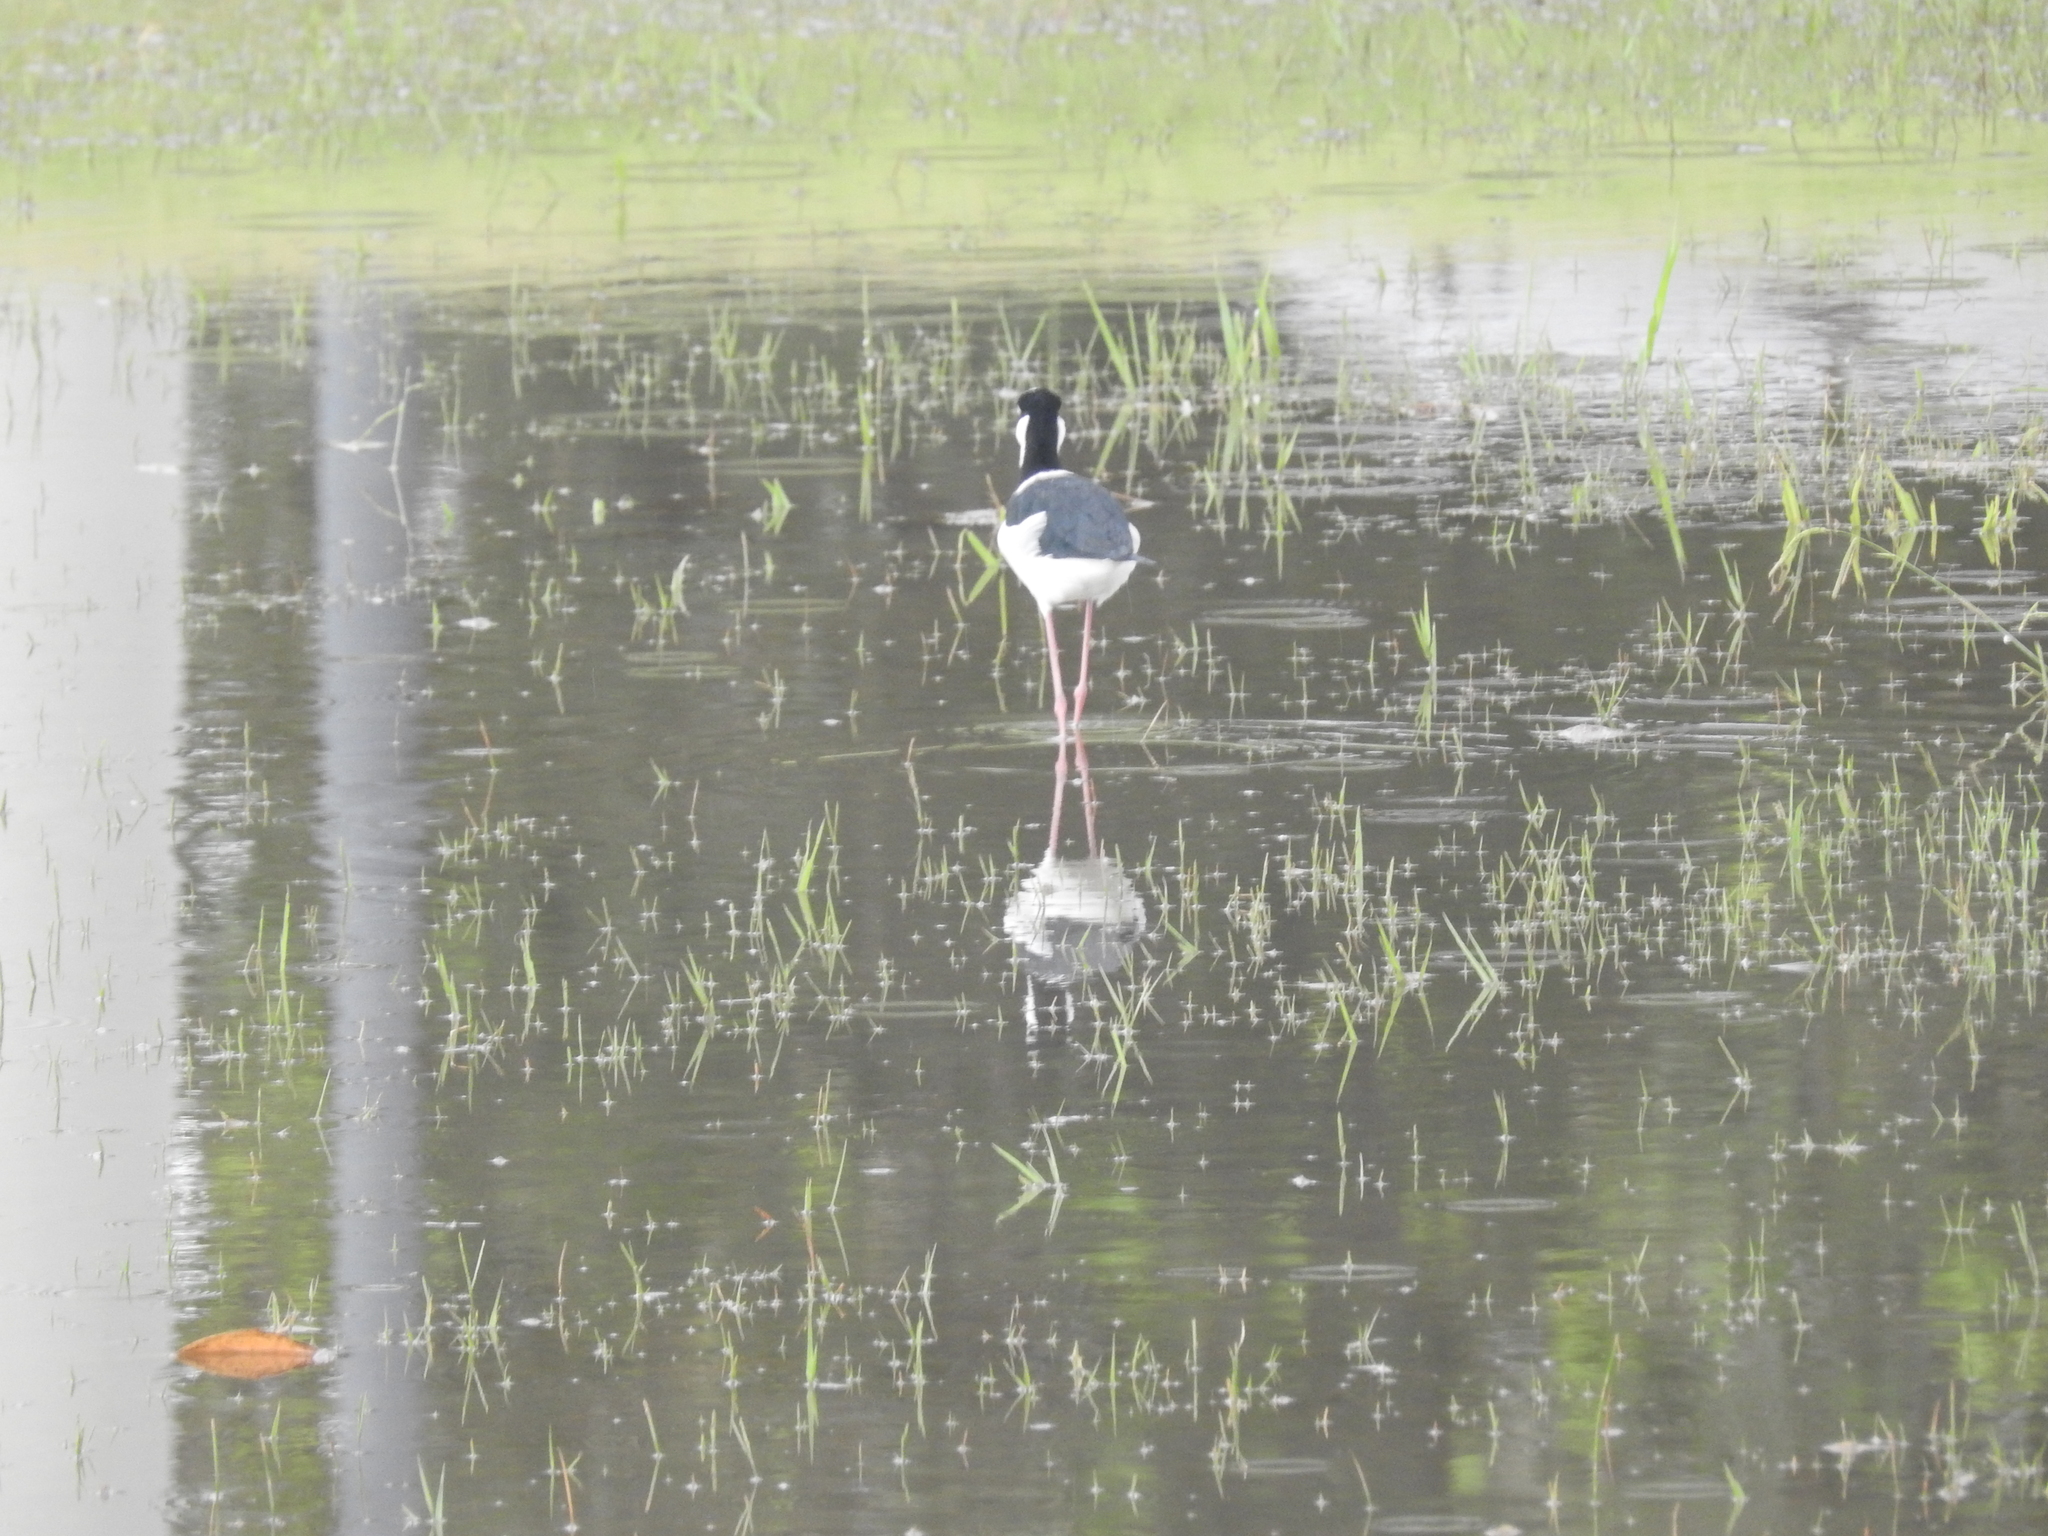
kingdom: Animalia
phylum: Chordata
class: Aves
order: Charadriiformes
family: Recurvirostridae
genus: Himantopus
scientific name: Himantopus mexicanus
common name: Black-necked stilt
